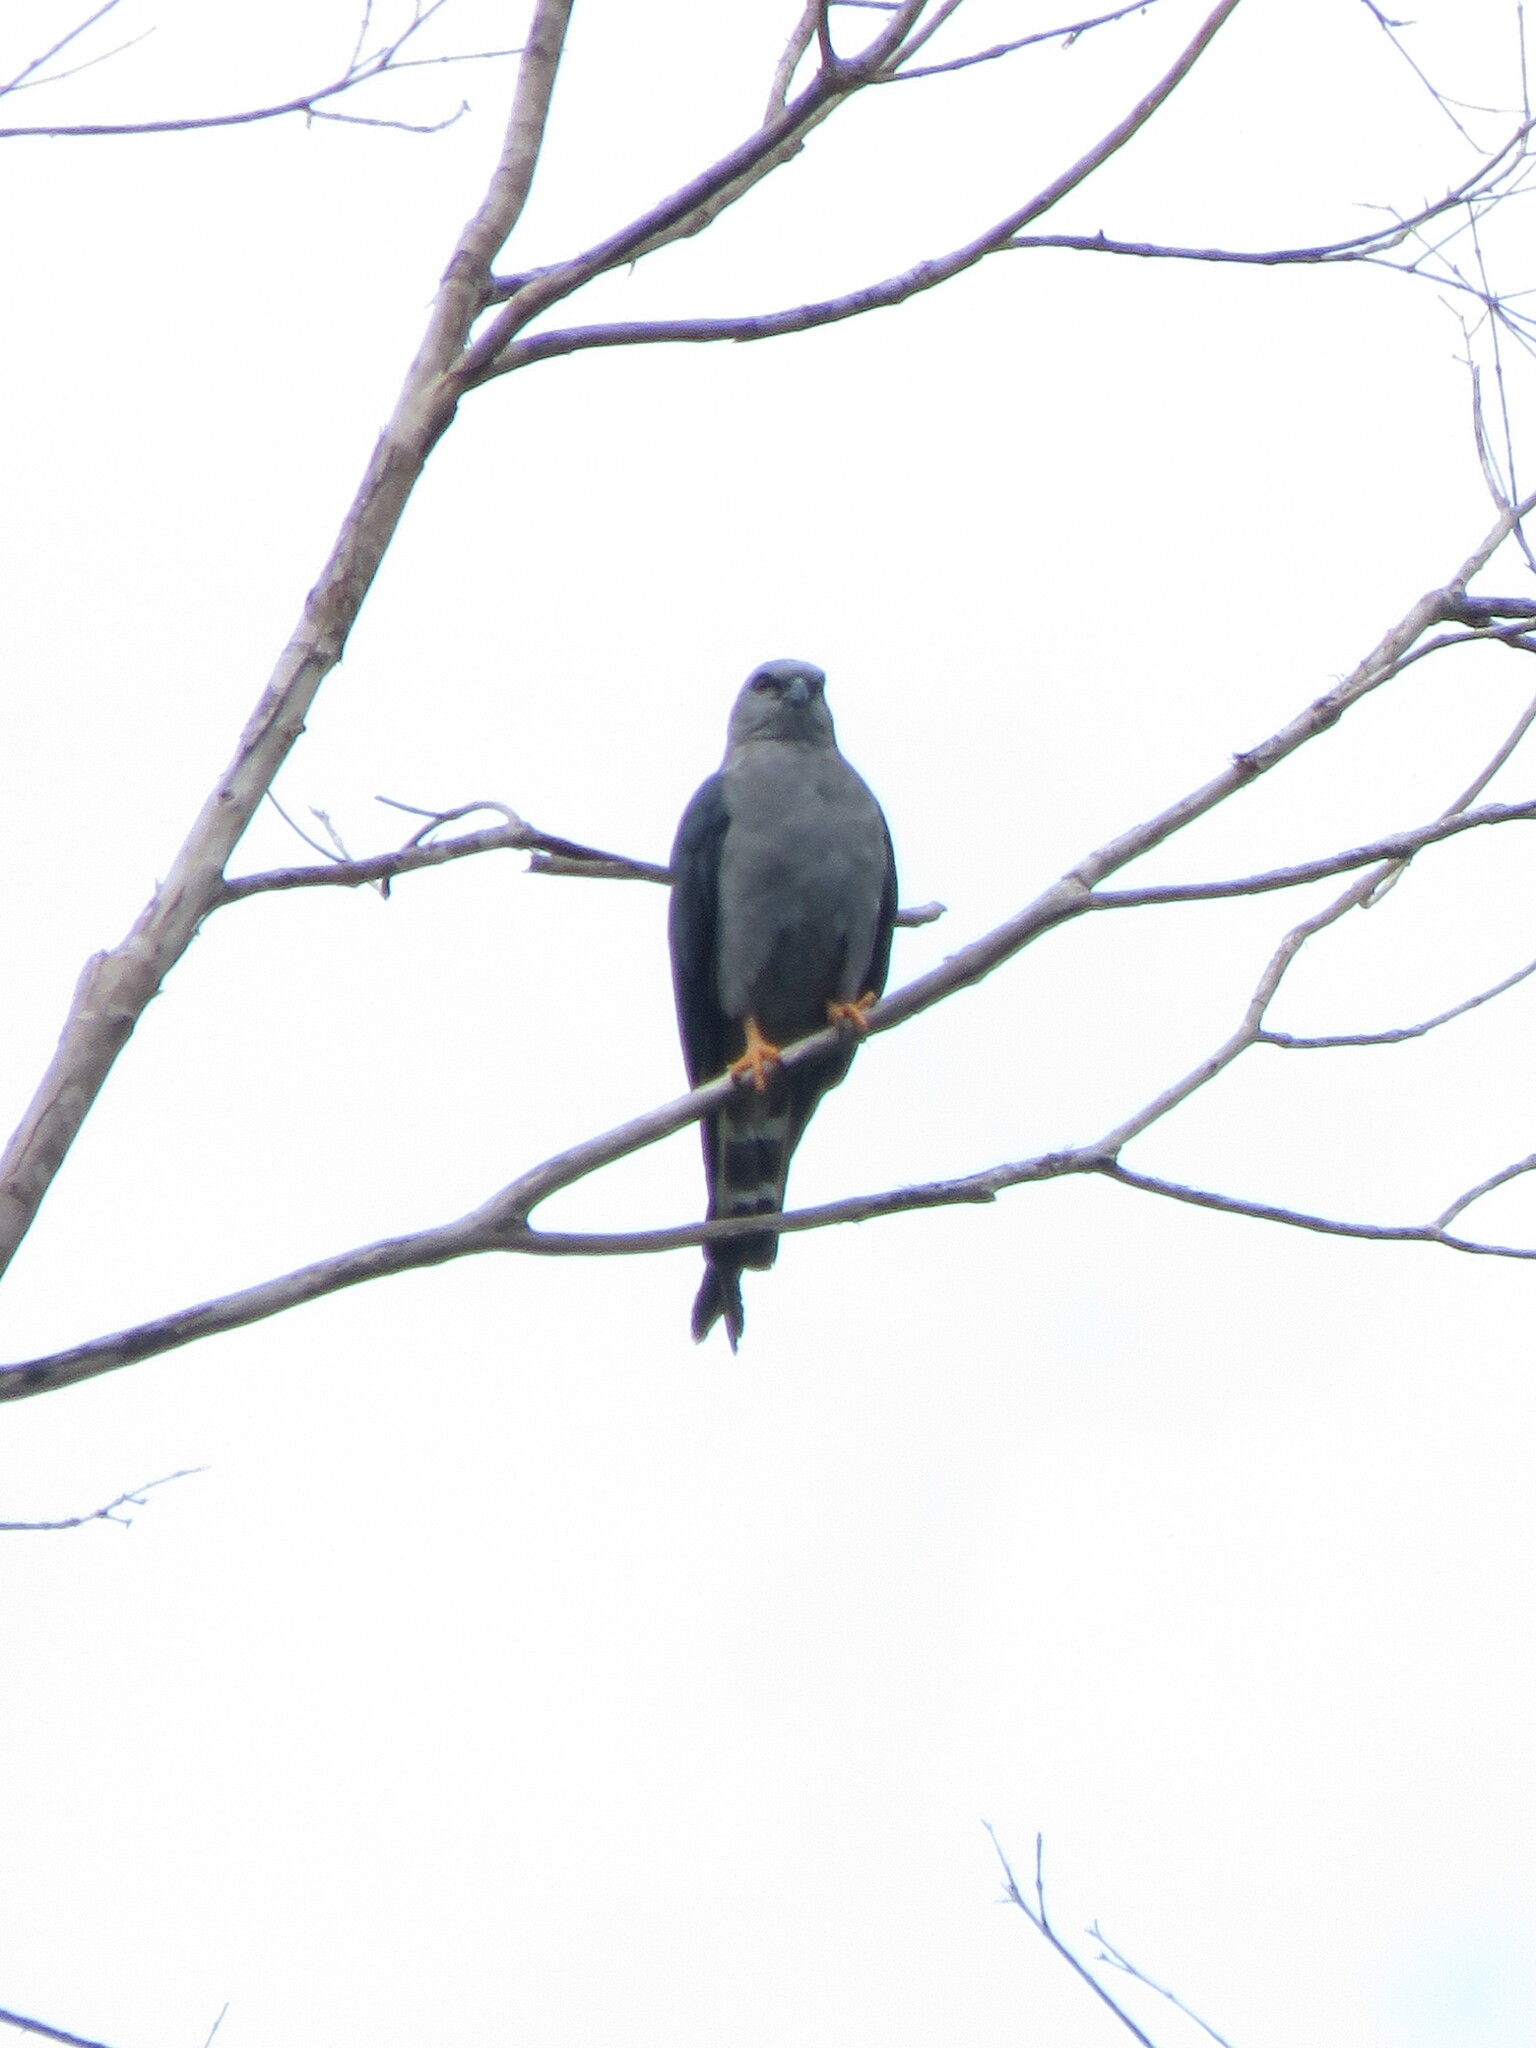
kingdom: Animalia
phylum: Chordata
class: Aves
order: Accipitriformes
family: Accipitridae
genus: Ictinia
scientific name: Ictinia plumbea
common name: Plumbeous kite
